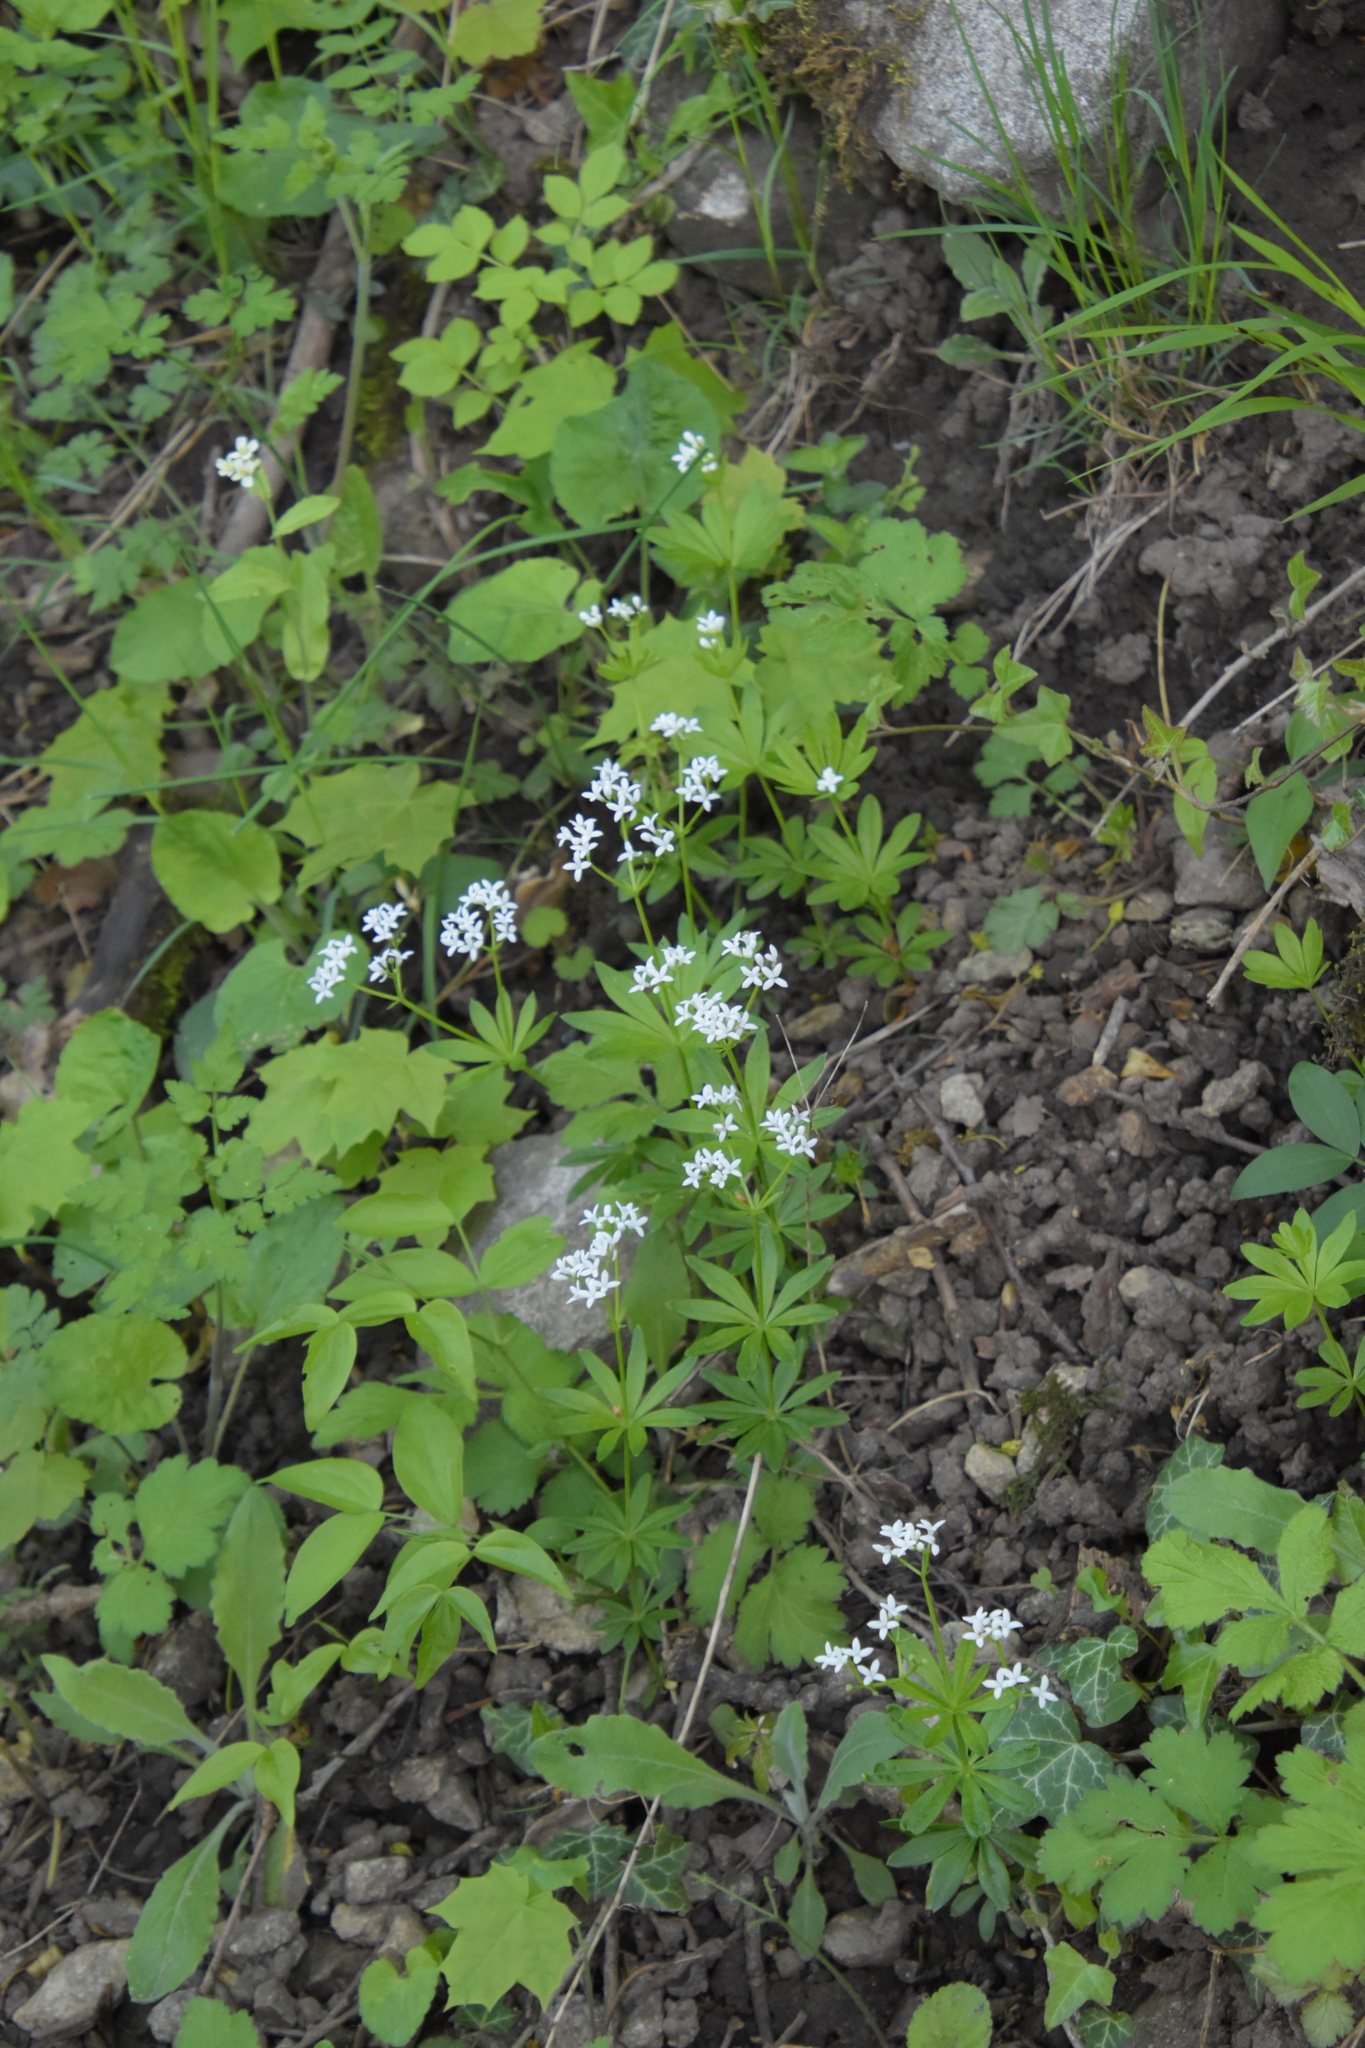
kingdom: Plantae
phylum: Tracheophyta
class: Magnoliopsida
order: Gentianales
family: Rubiaceae
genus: Galium
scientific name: Galium odoratum
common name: Sweet woodruff
